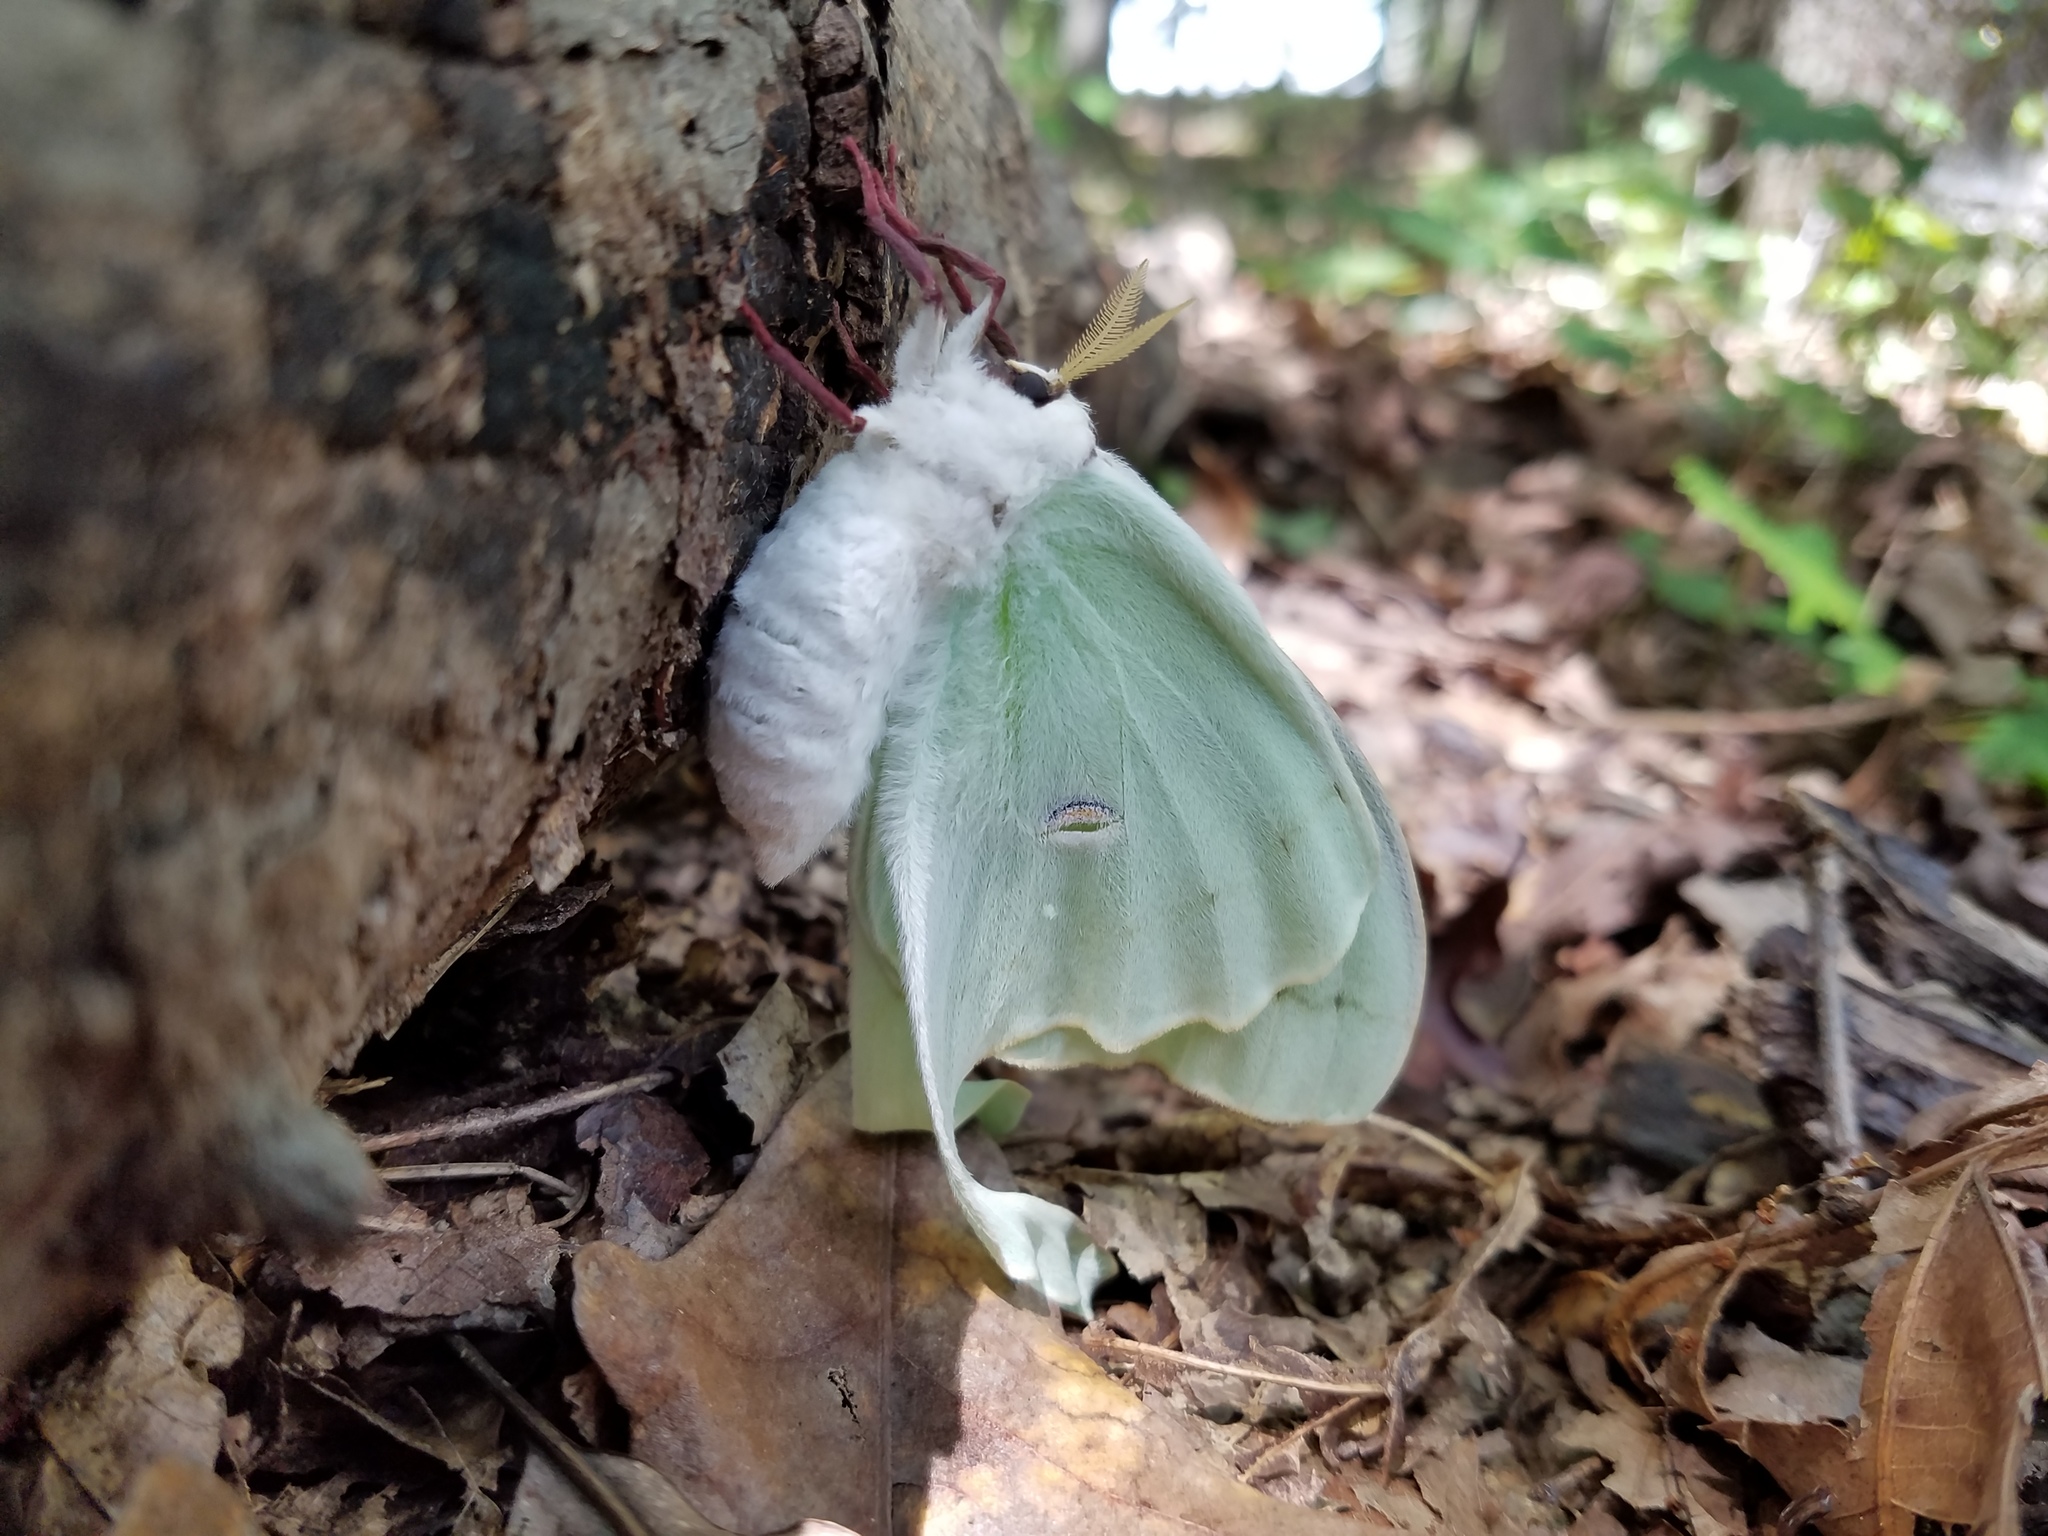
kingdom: Animalia
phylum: Arthropoda
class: Insecta
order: Lepidoptera
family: Saturniidae
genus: Actias
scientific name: Actias luna
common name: Luna moth
